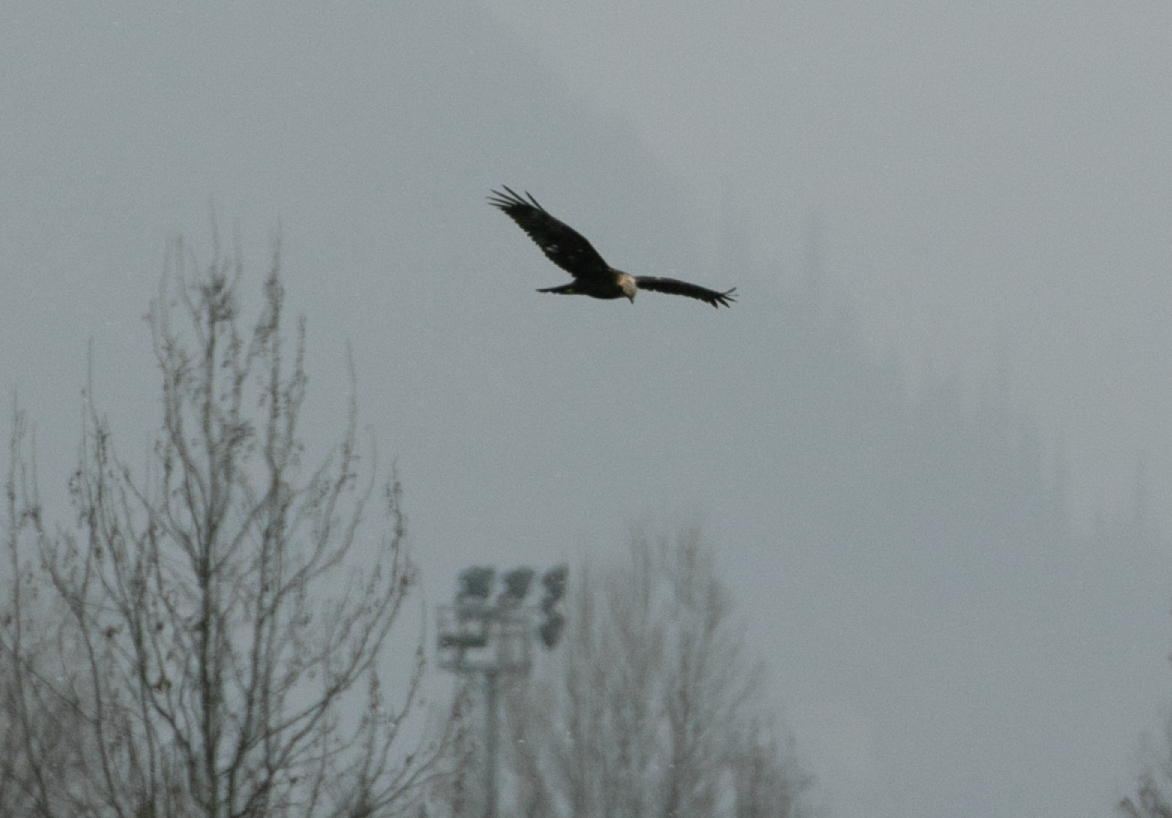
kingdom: Animalia
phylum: Chordata
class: Aves
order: Accipitriformes
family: Accipitridae
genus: Circus
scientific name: Circus aeruginosus
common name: Western marsh harrier
